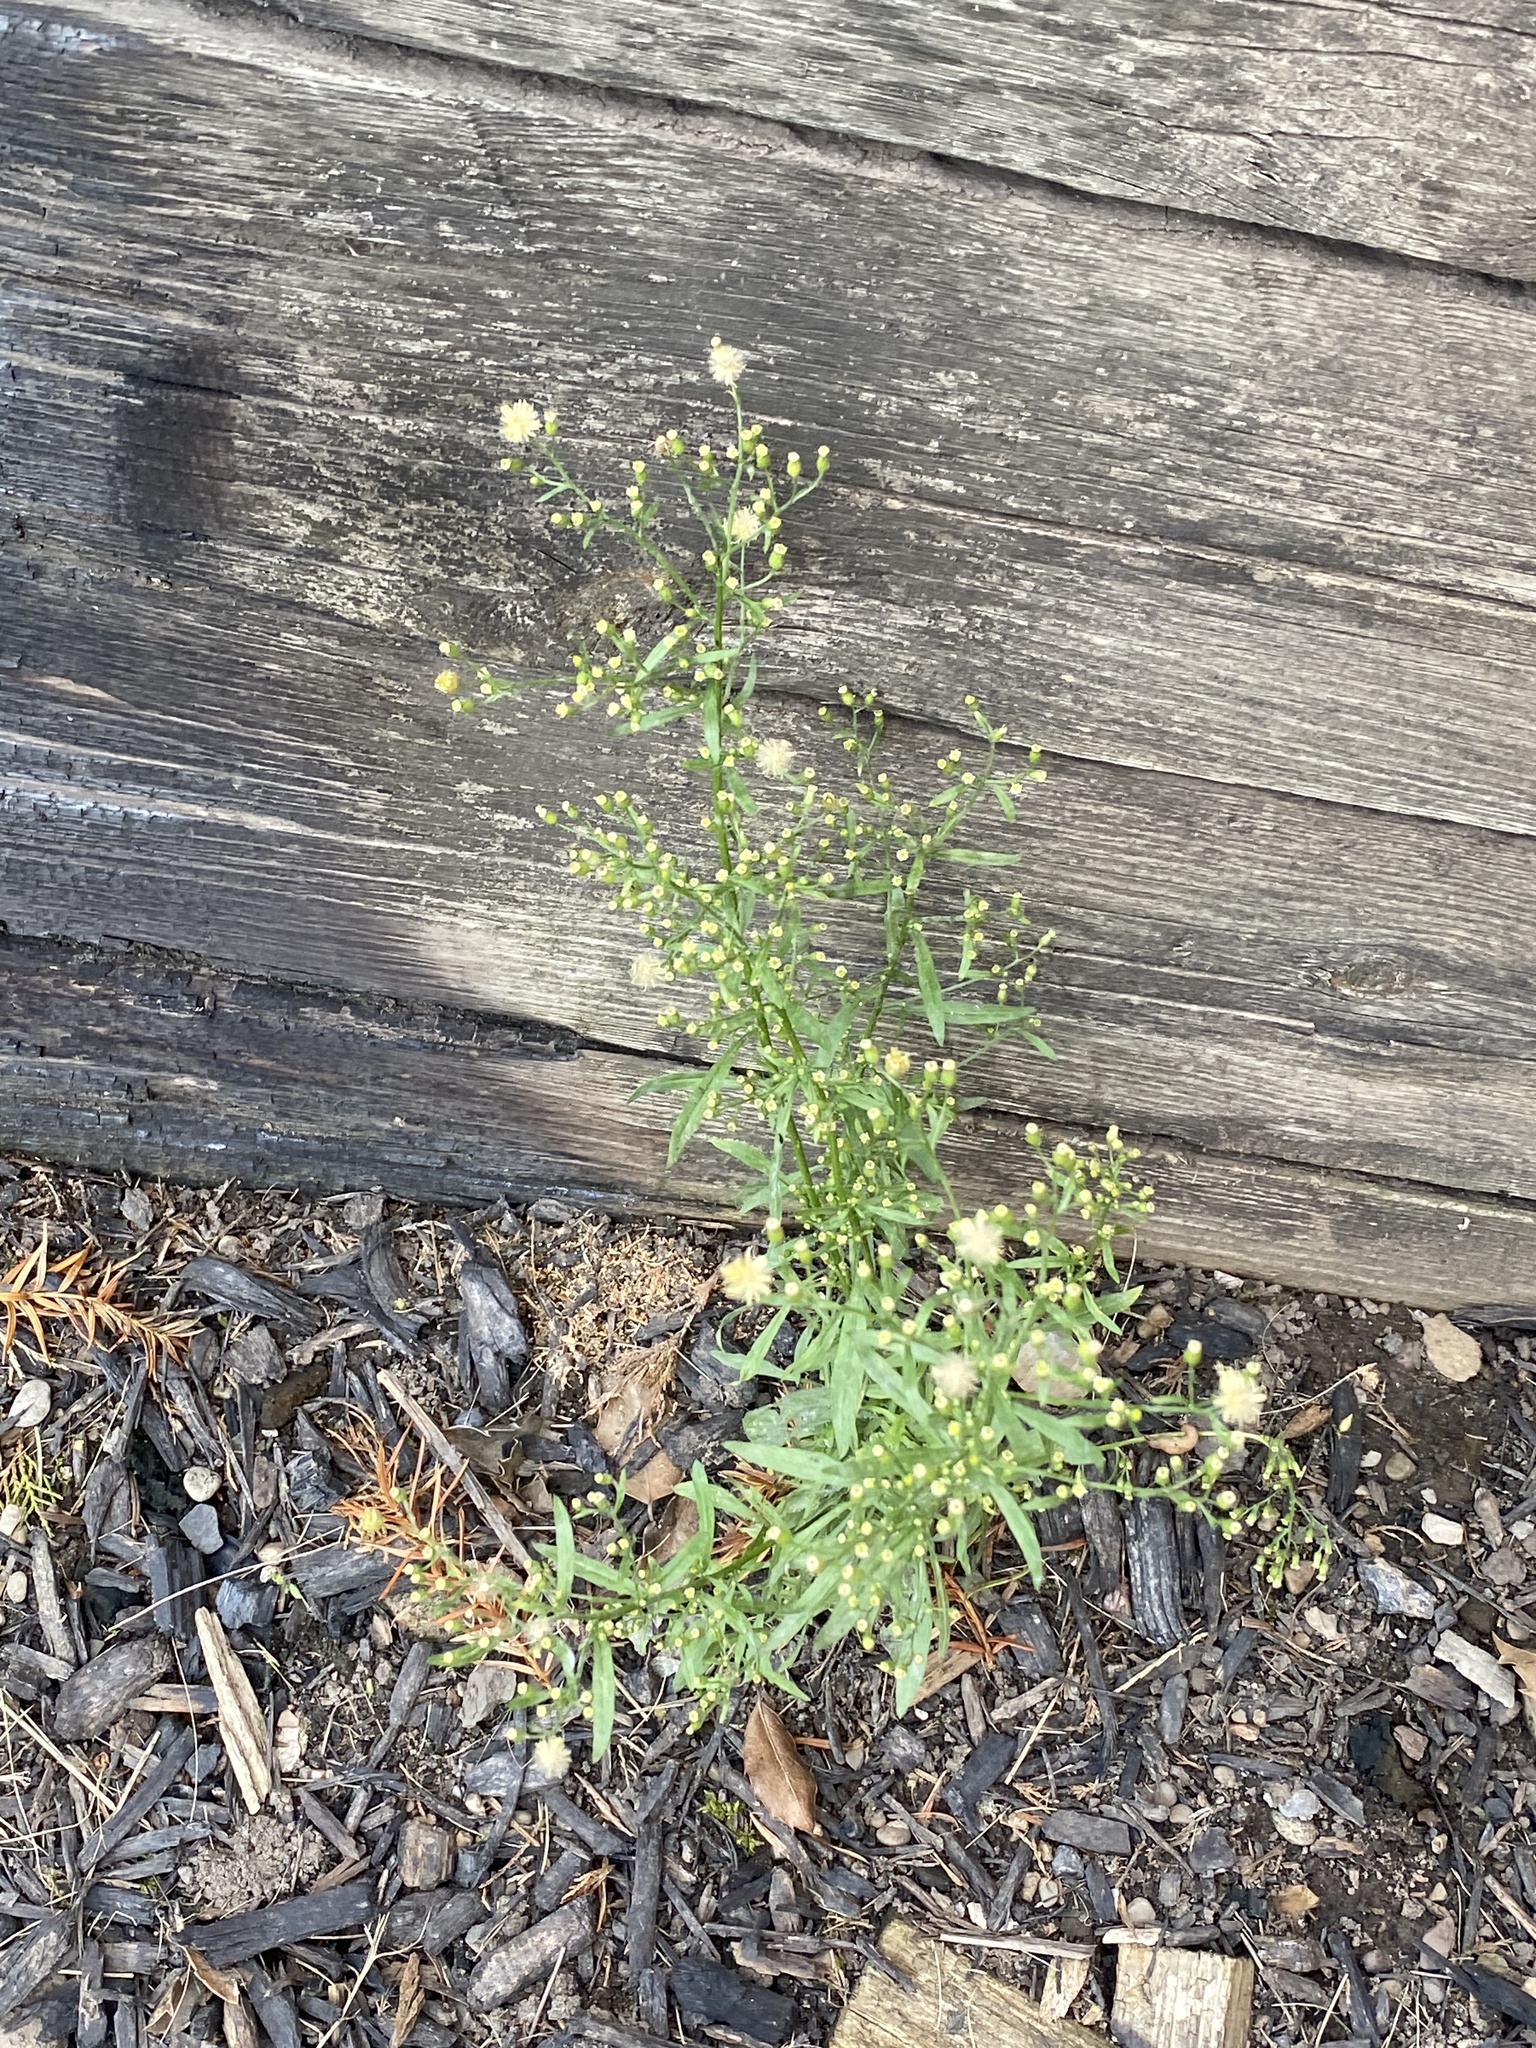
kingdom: Plantae
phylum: Tracheophyta
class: Magnoliopsida
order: Asterales
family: Asteraceae
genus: Erigeron
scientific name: Erigeron canadensis
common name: Canadian fleabane
